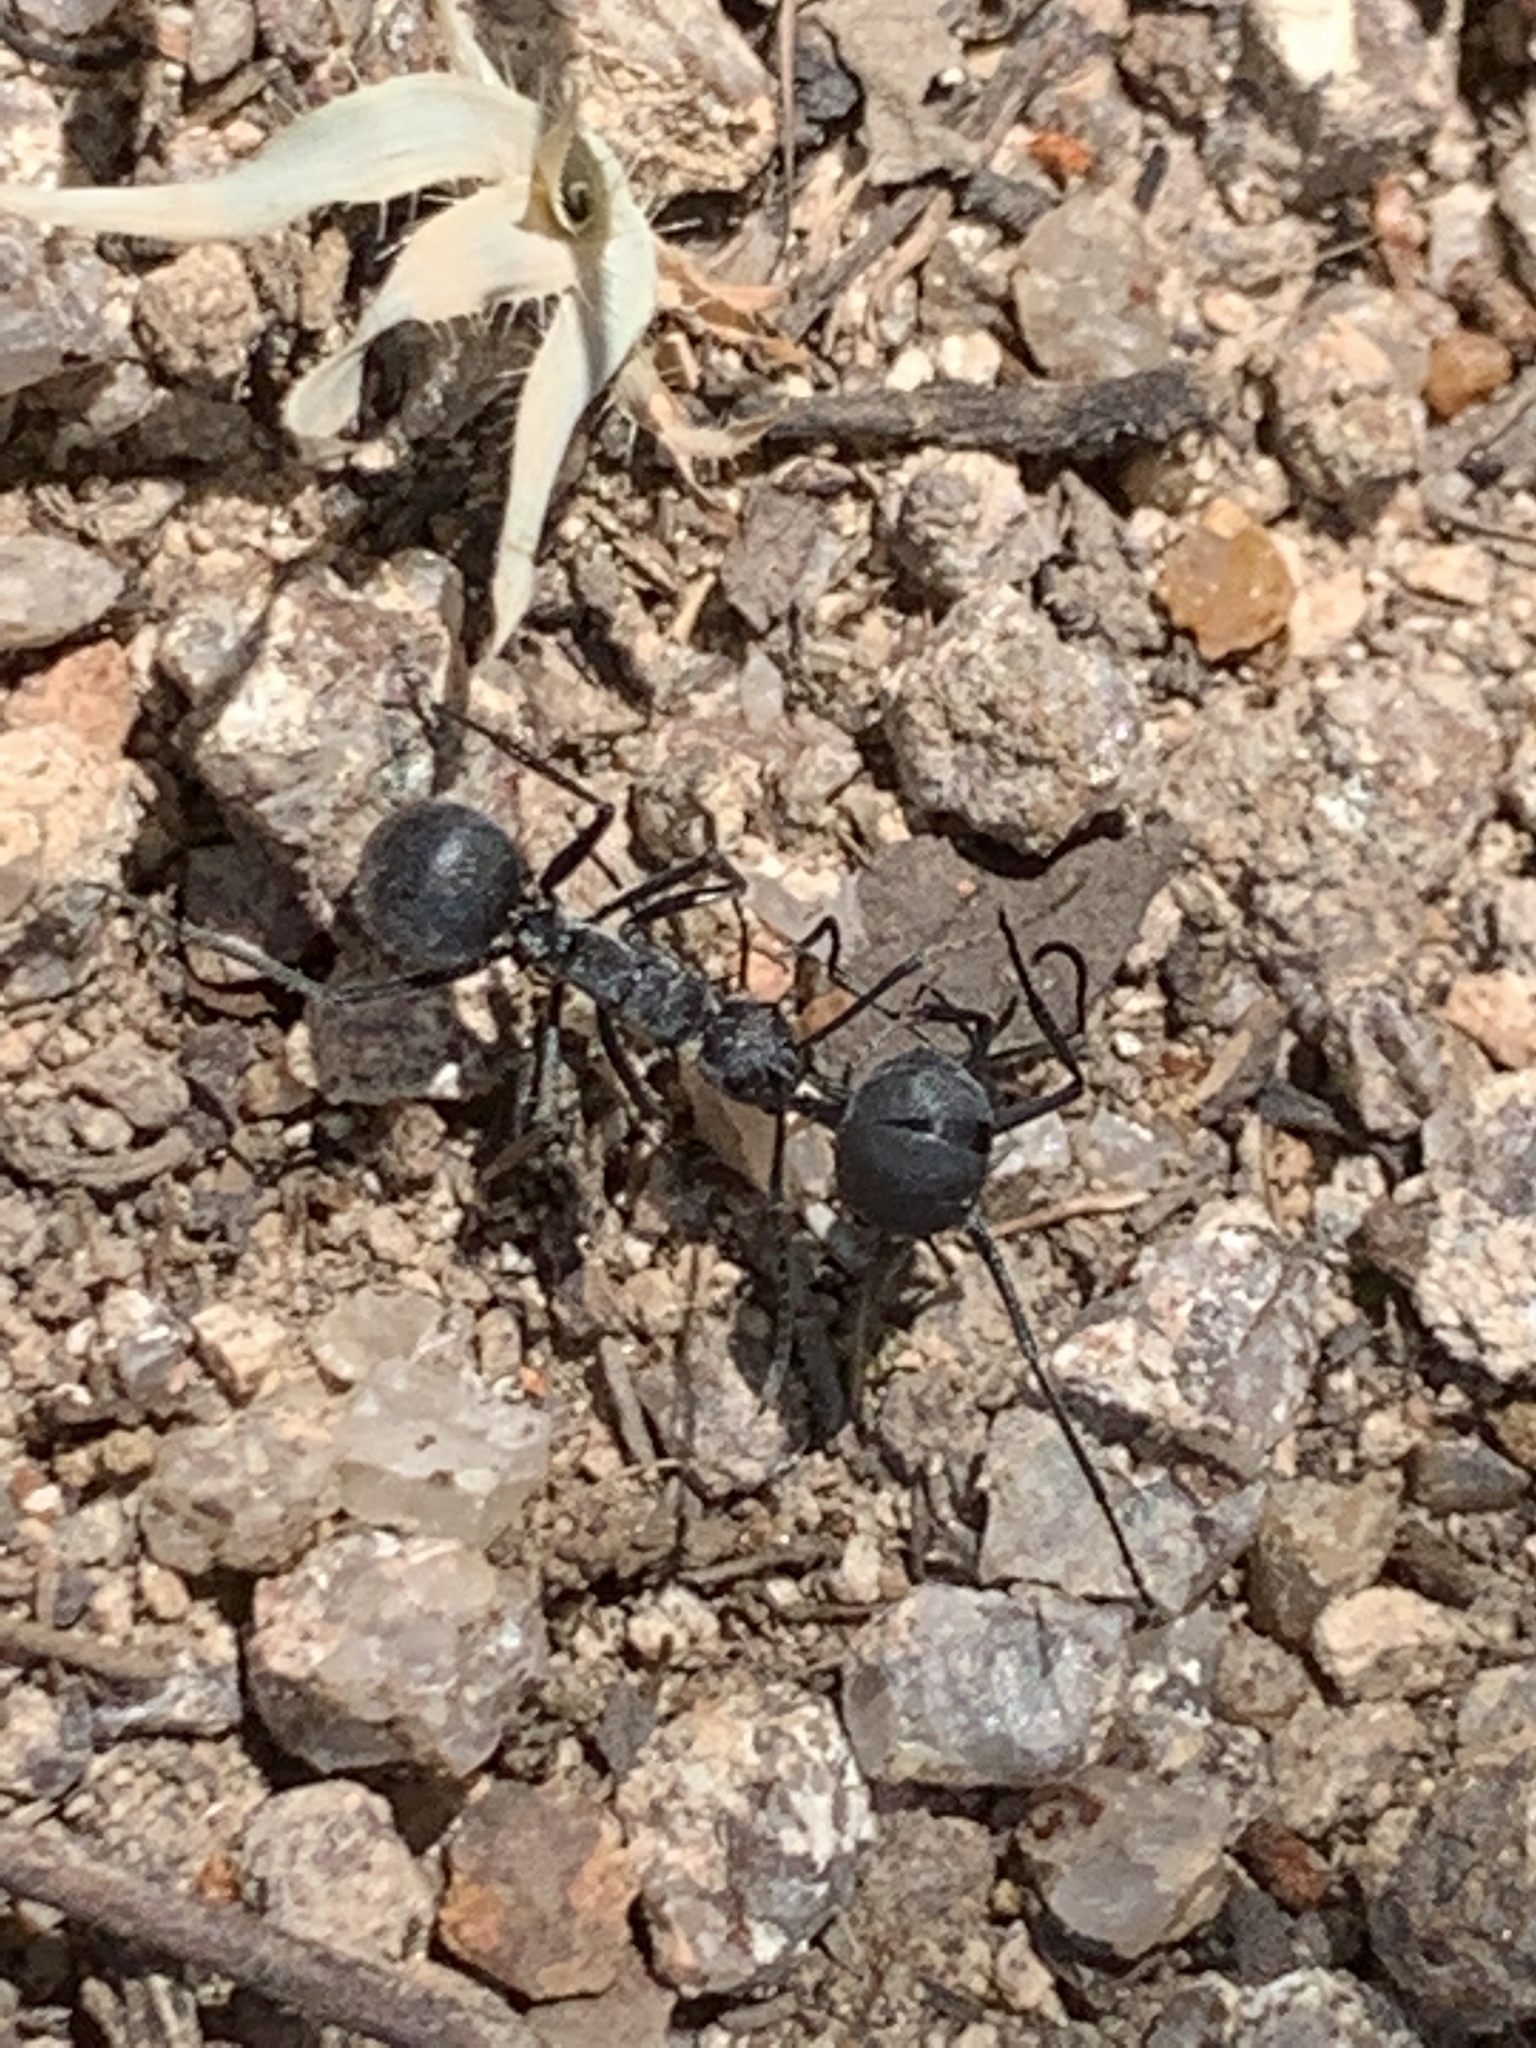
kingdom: Animalia
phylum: Arthropoda
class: Insecta
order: Hymenoptera
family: Formicidae
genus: Polyrhachis
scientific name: Polyrhachis schistacea
